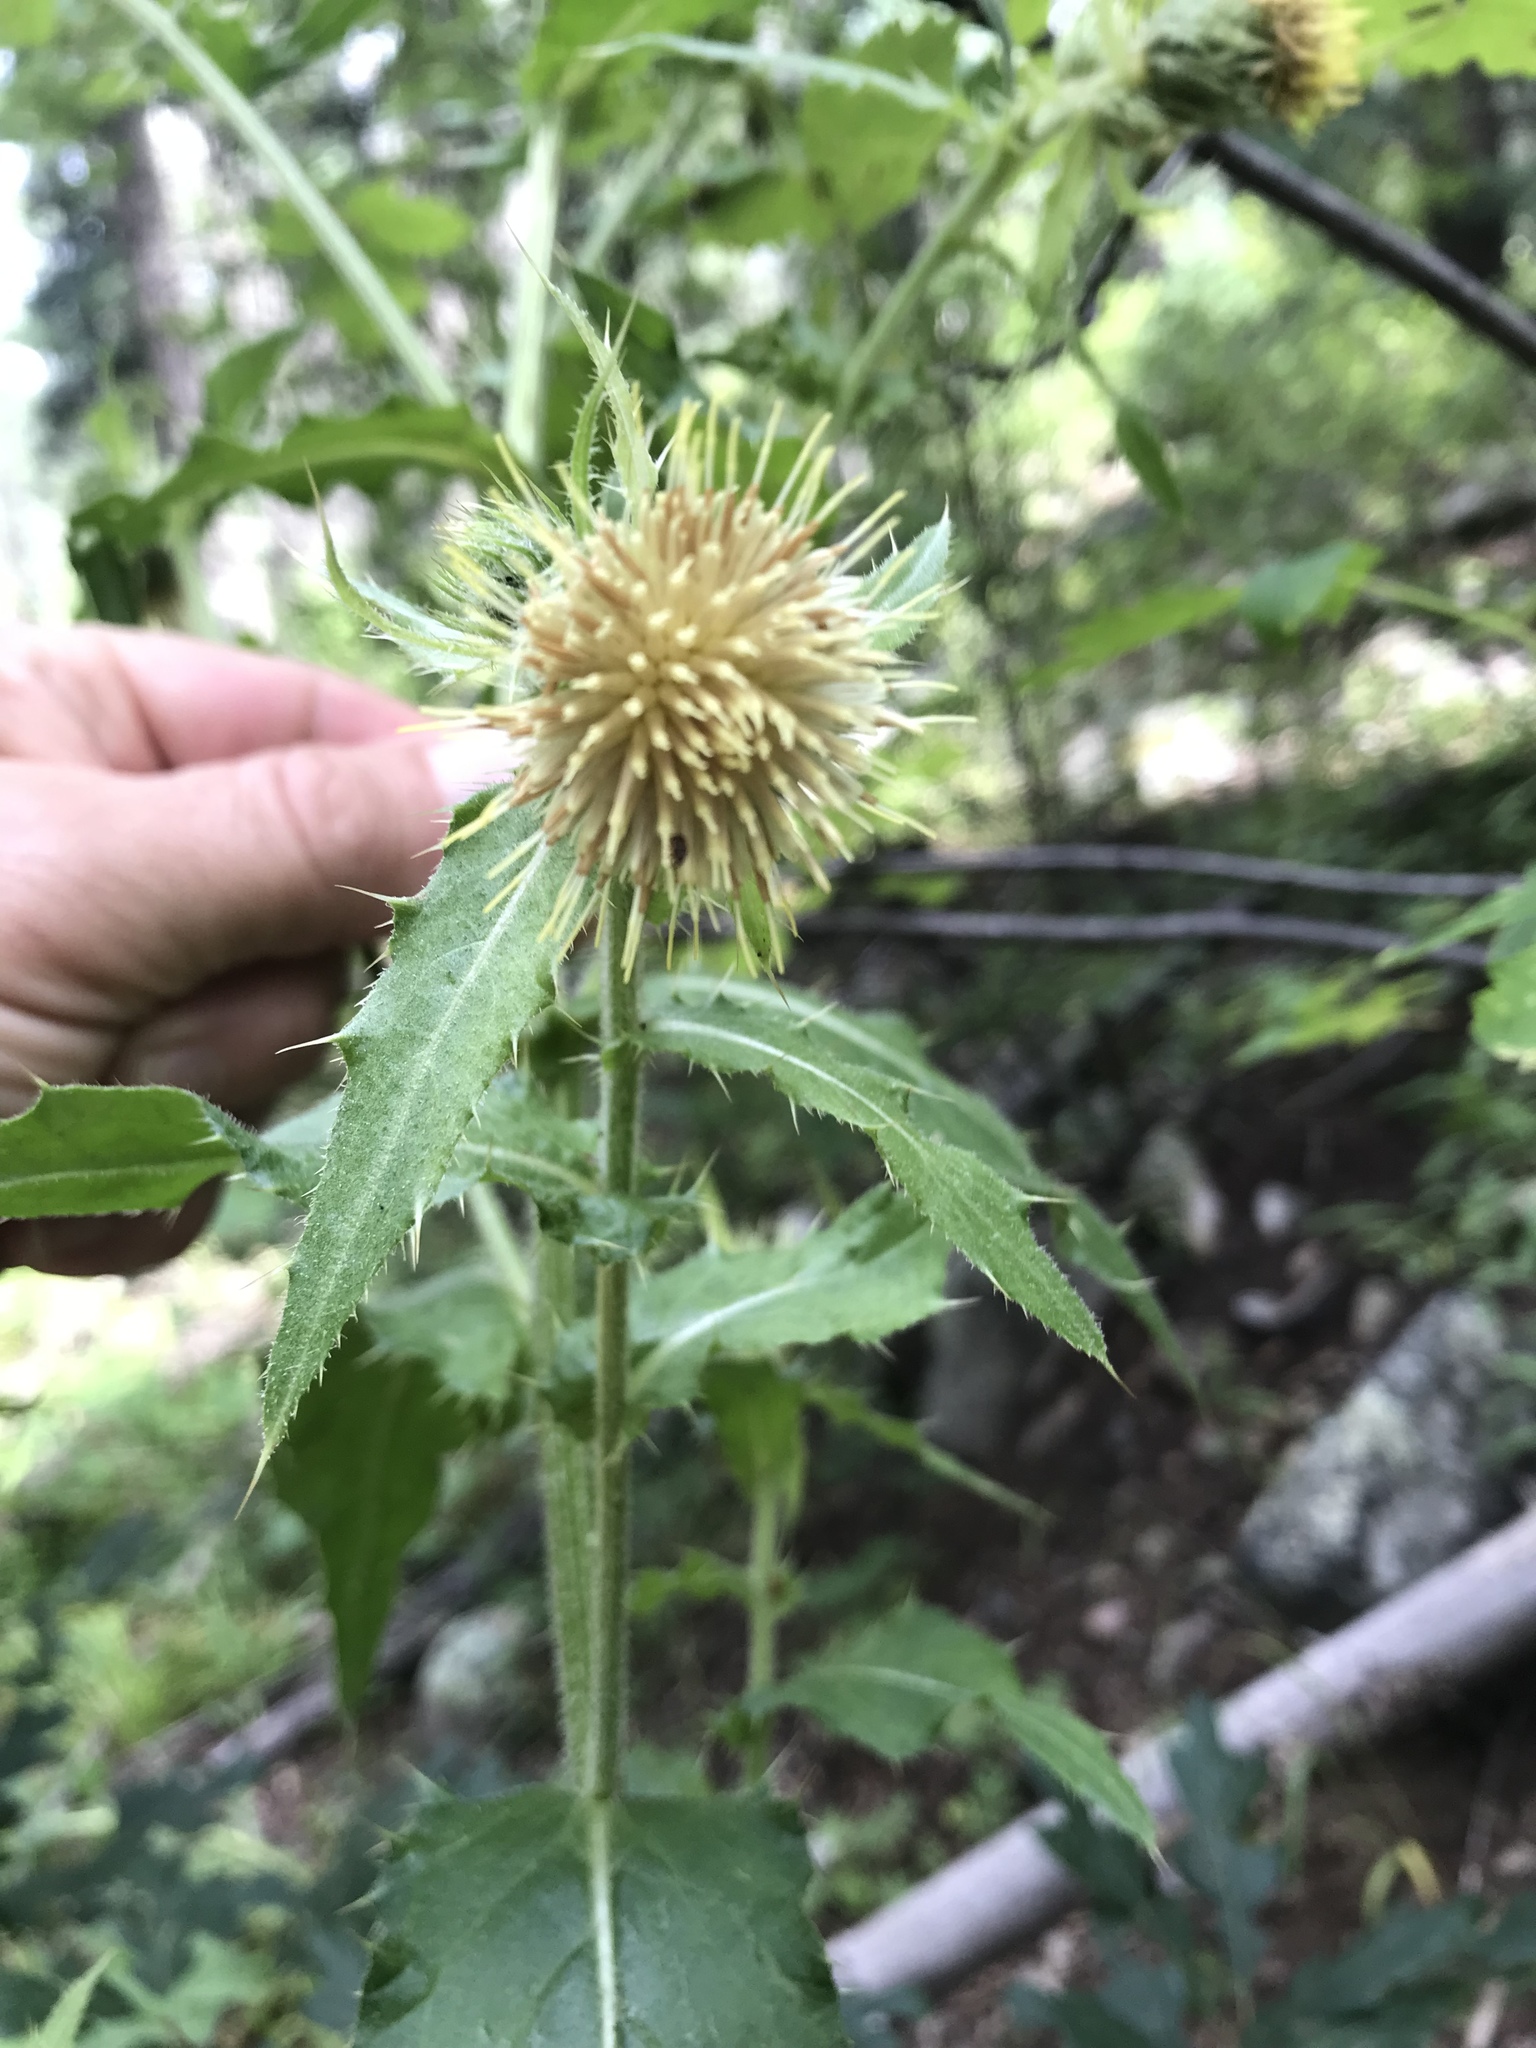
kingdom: Plantae
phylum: Tracheophyta
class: Magnoliopsida
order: Asterales
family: Asteraceae
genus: Cirsium
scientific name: Cirsium parryi
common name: Parry's thistle
